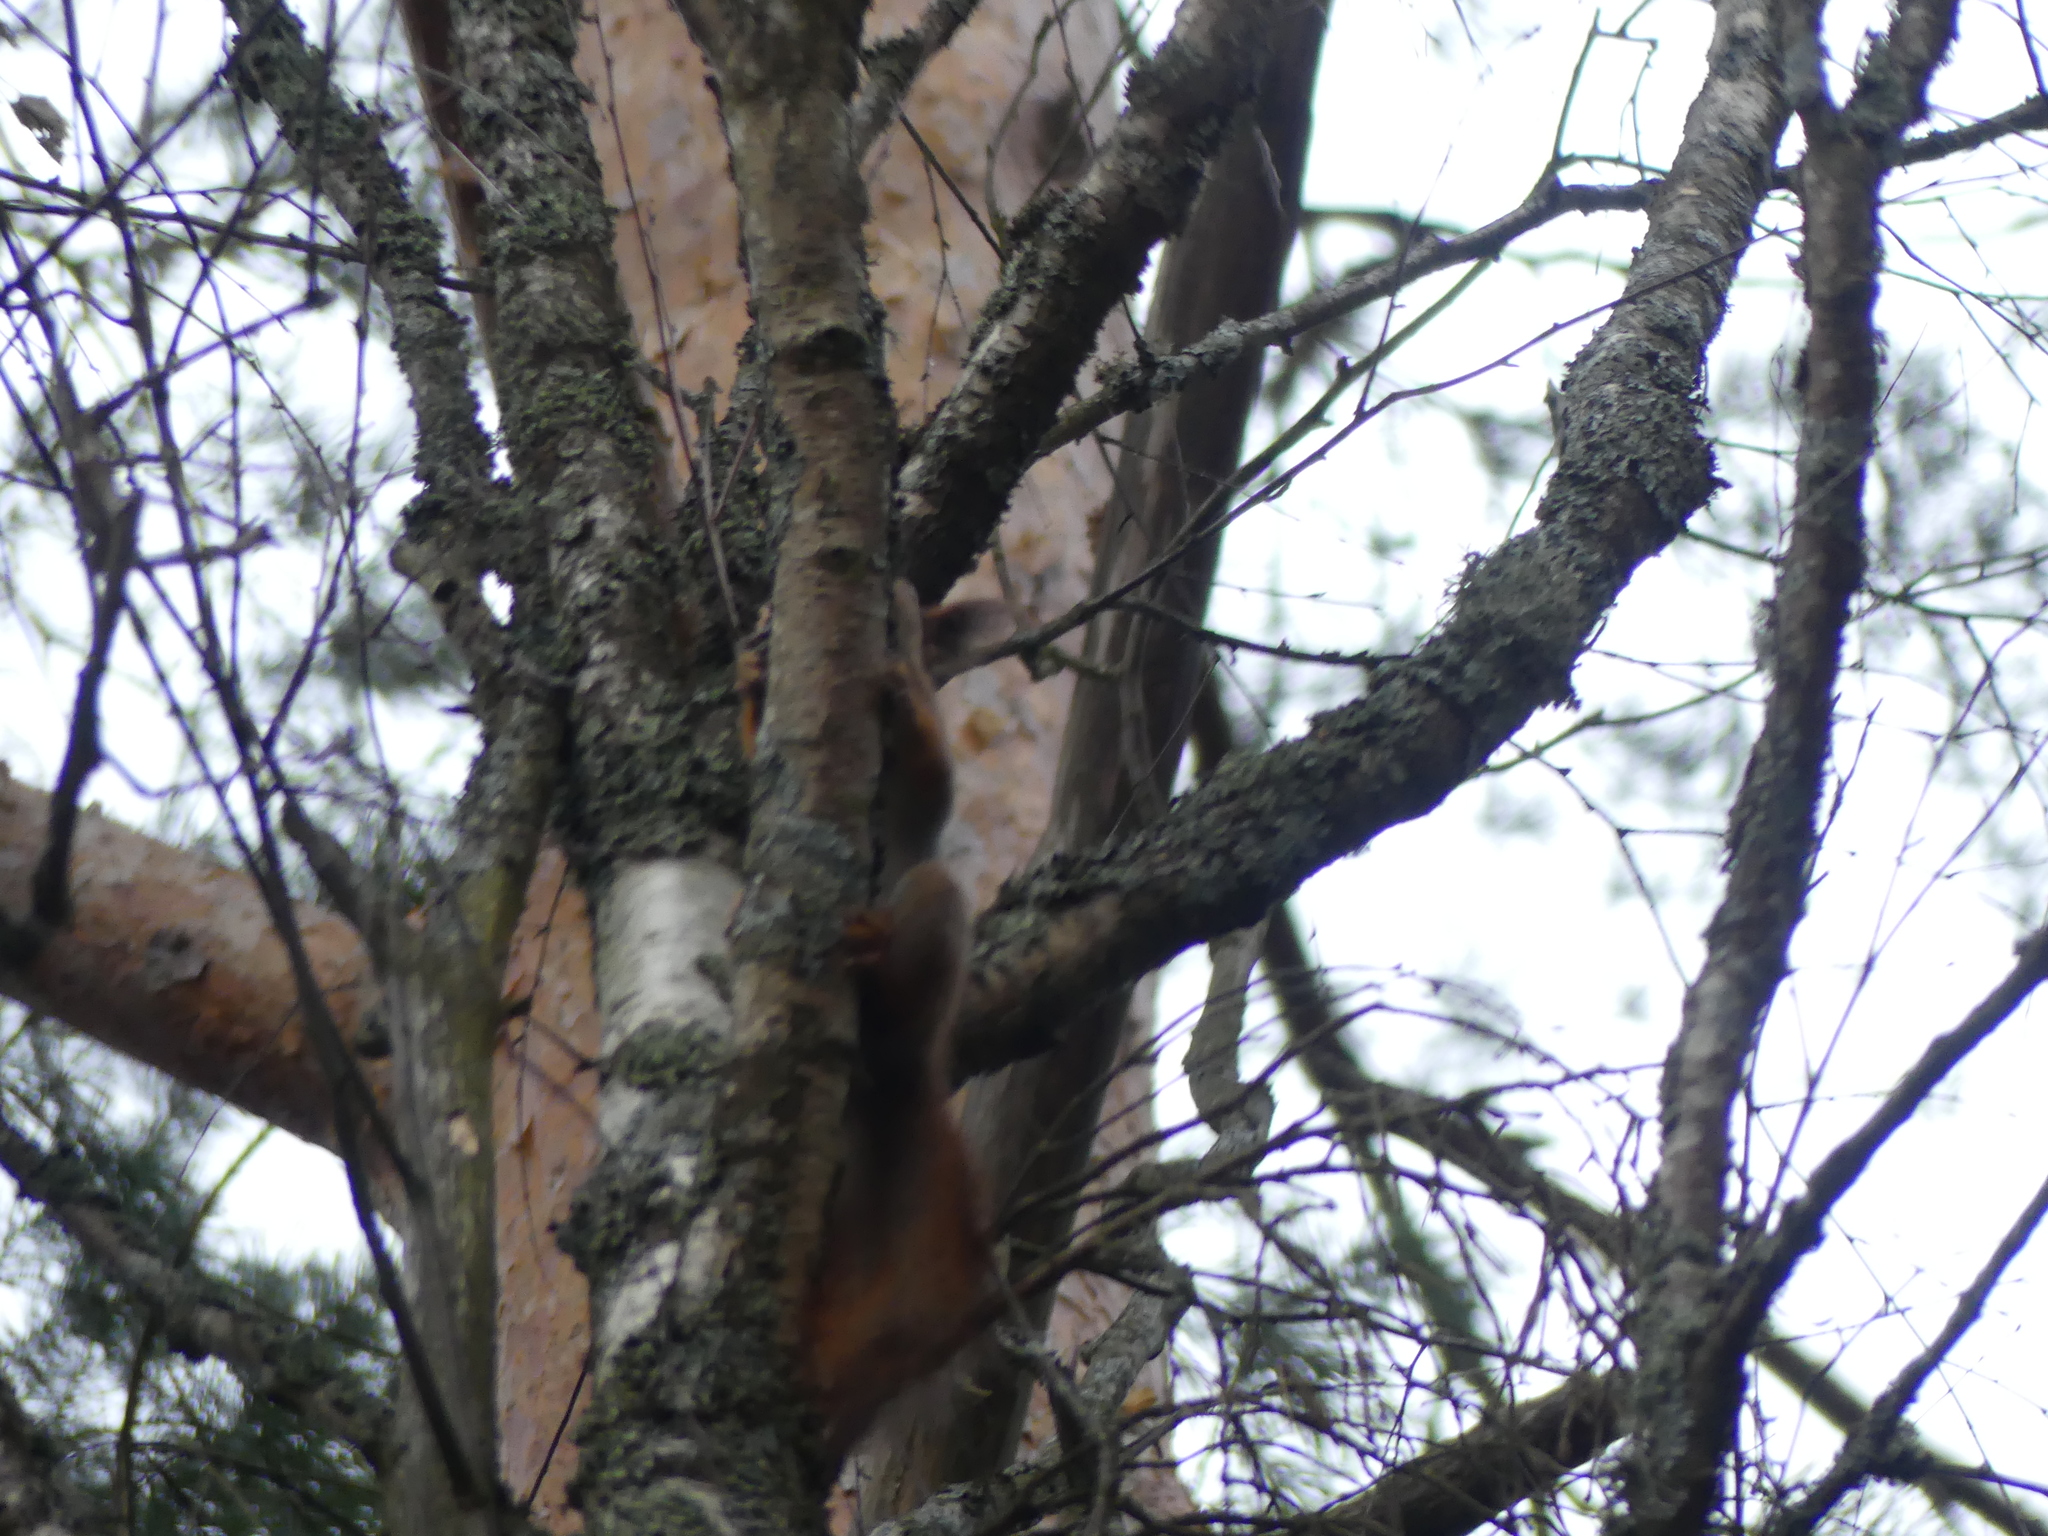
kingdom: Animalia
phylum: Chordata
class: Mammalia
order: Rodentia
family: Sciuridae
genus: Sciurus
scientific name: Sciurus vulgaris
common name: Eurasian red squirrel
